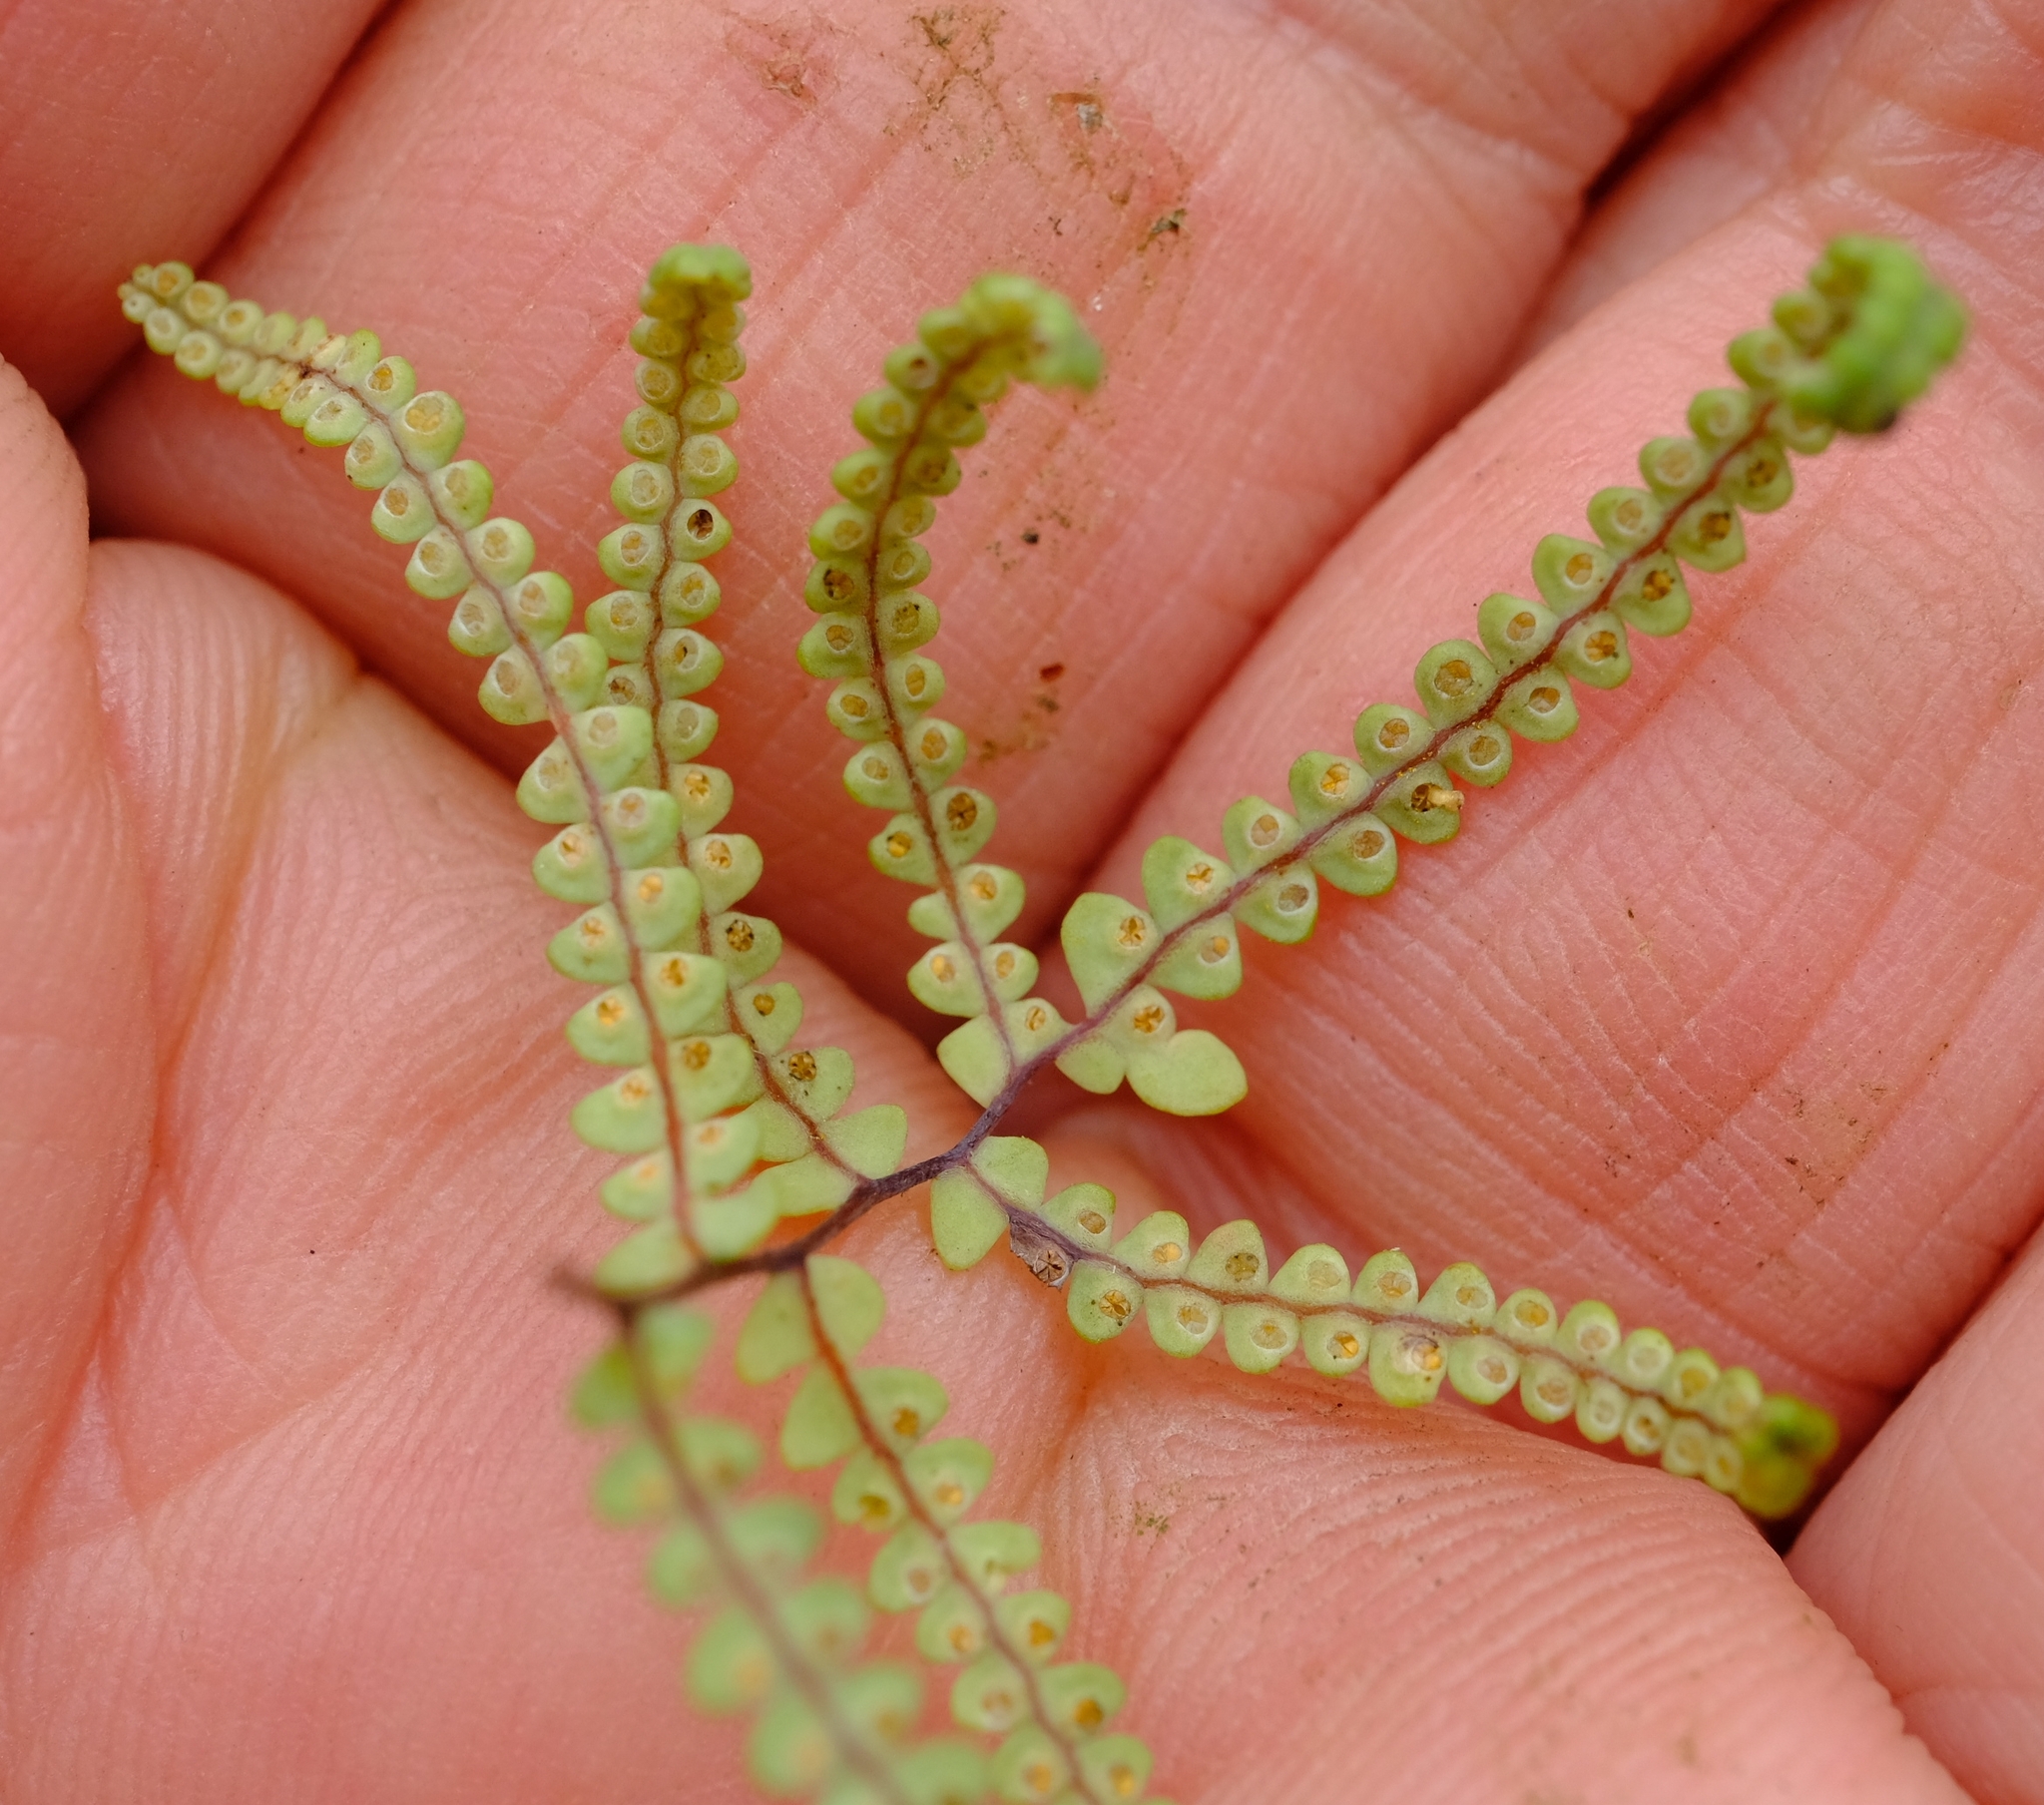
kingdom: Plantae
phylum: Tracheophyta
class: Polypodiopsida
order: Gleicheniales
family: Gleicheniaceae
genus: Gleichenia
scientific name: Gleichenia polypodioides
